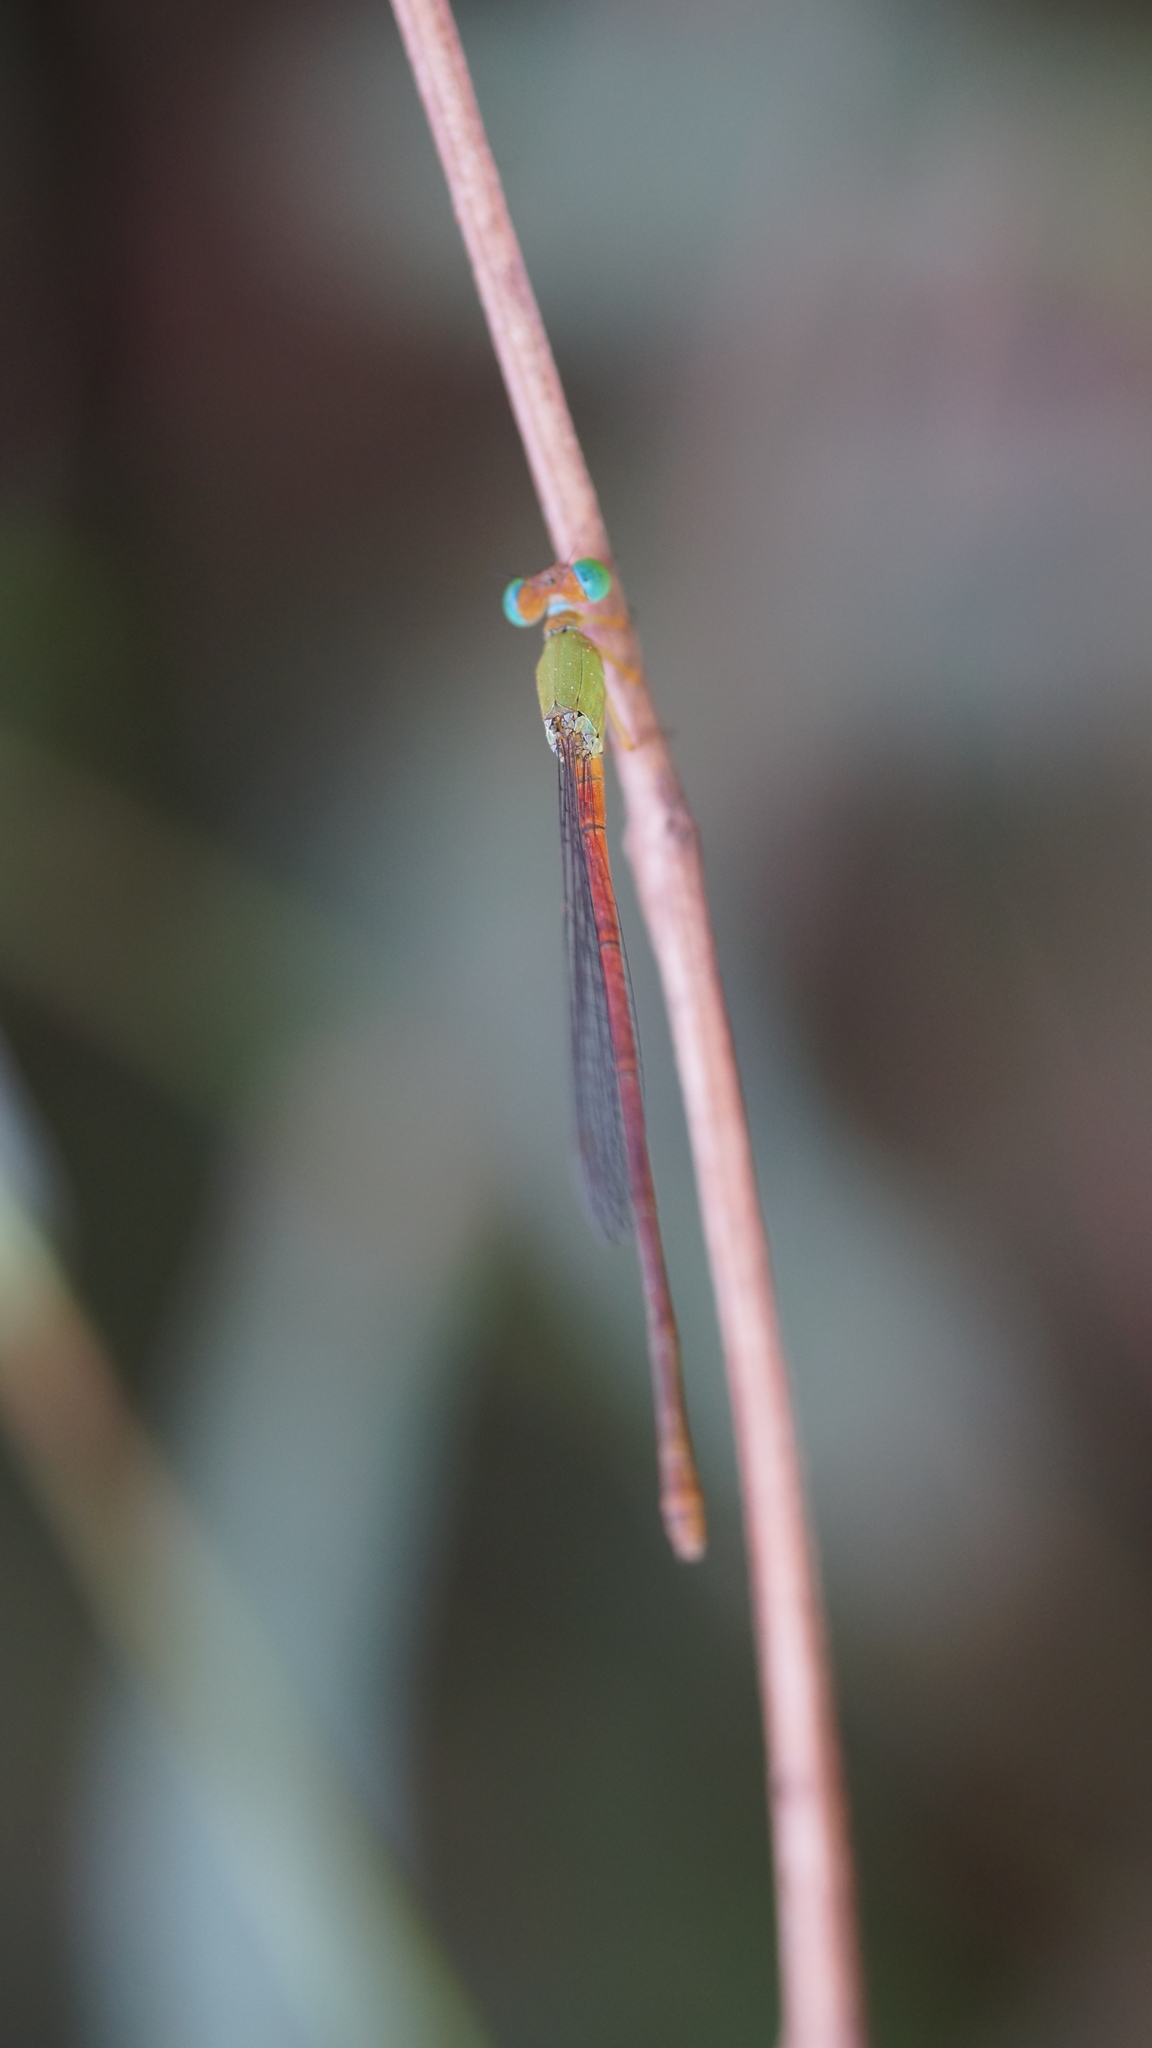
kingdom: Animalia
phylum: Arthropoda
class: Insecta
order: Odonata
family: Coenagrionidae
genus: Ceriagrion
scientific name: Ceriagrion cerinorubellum
